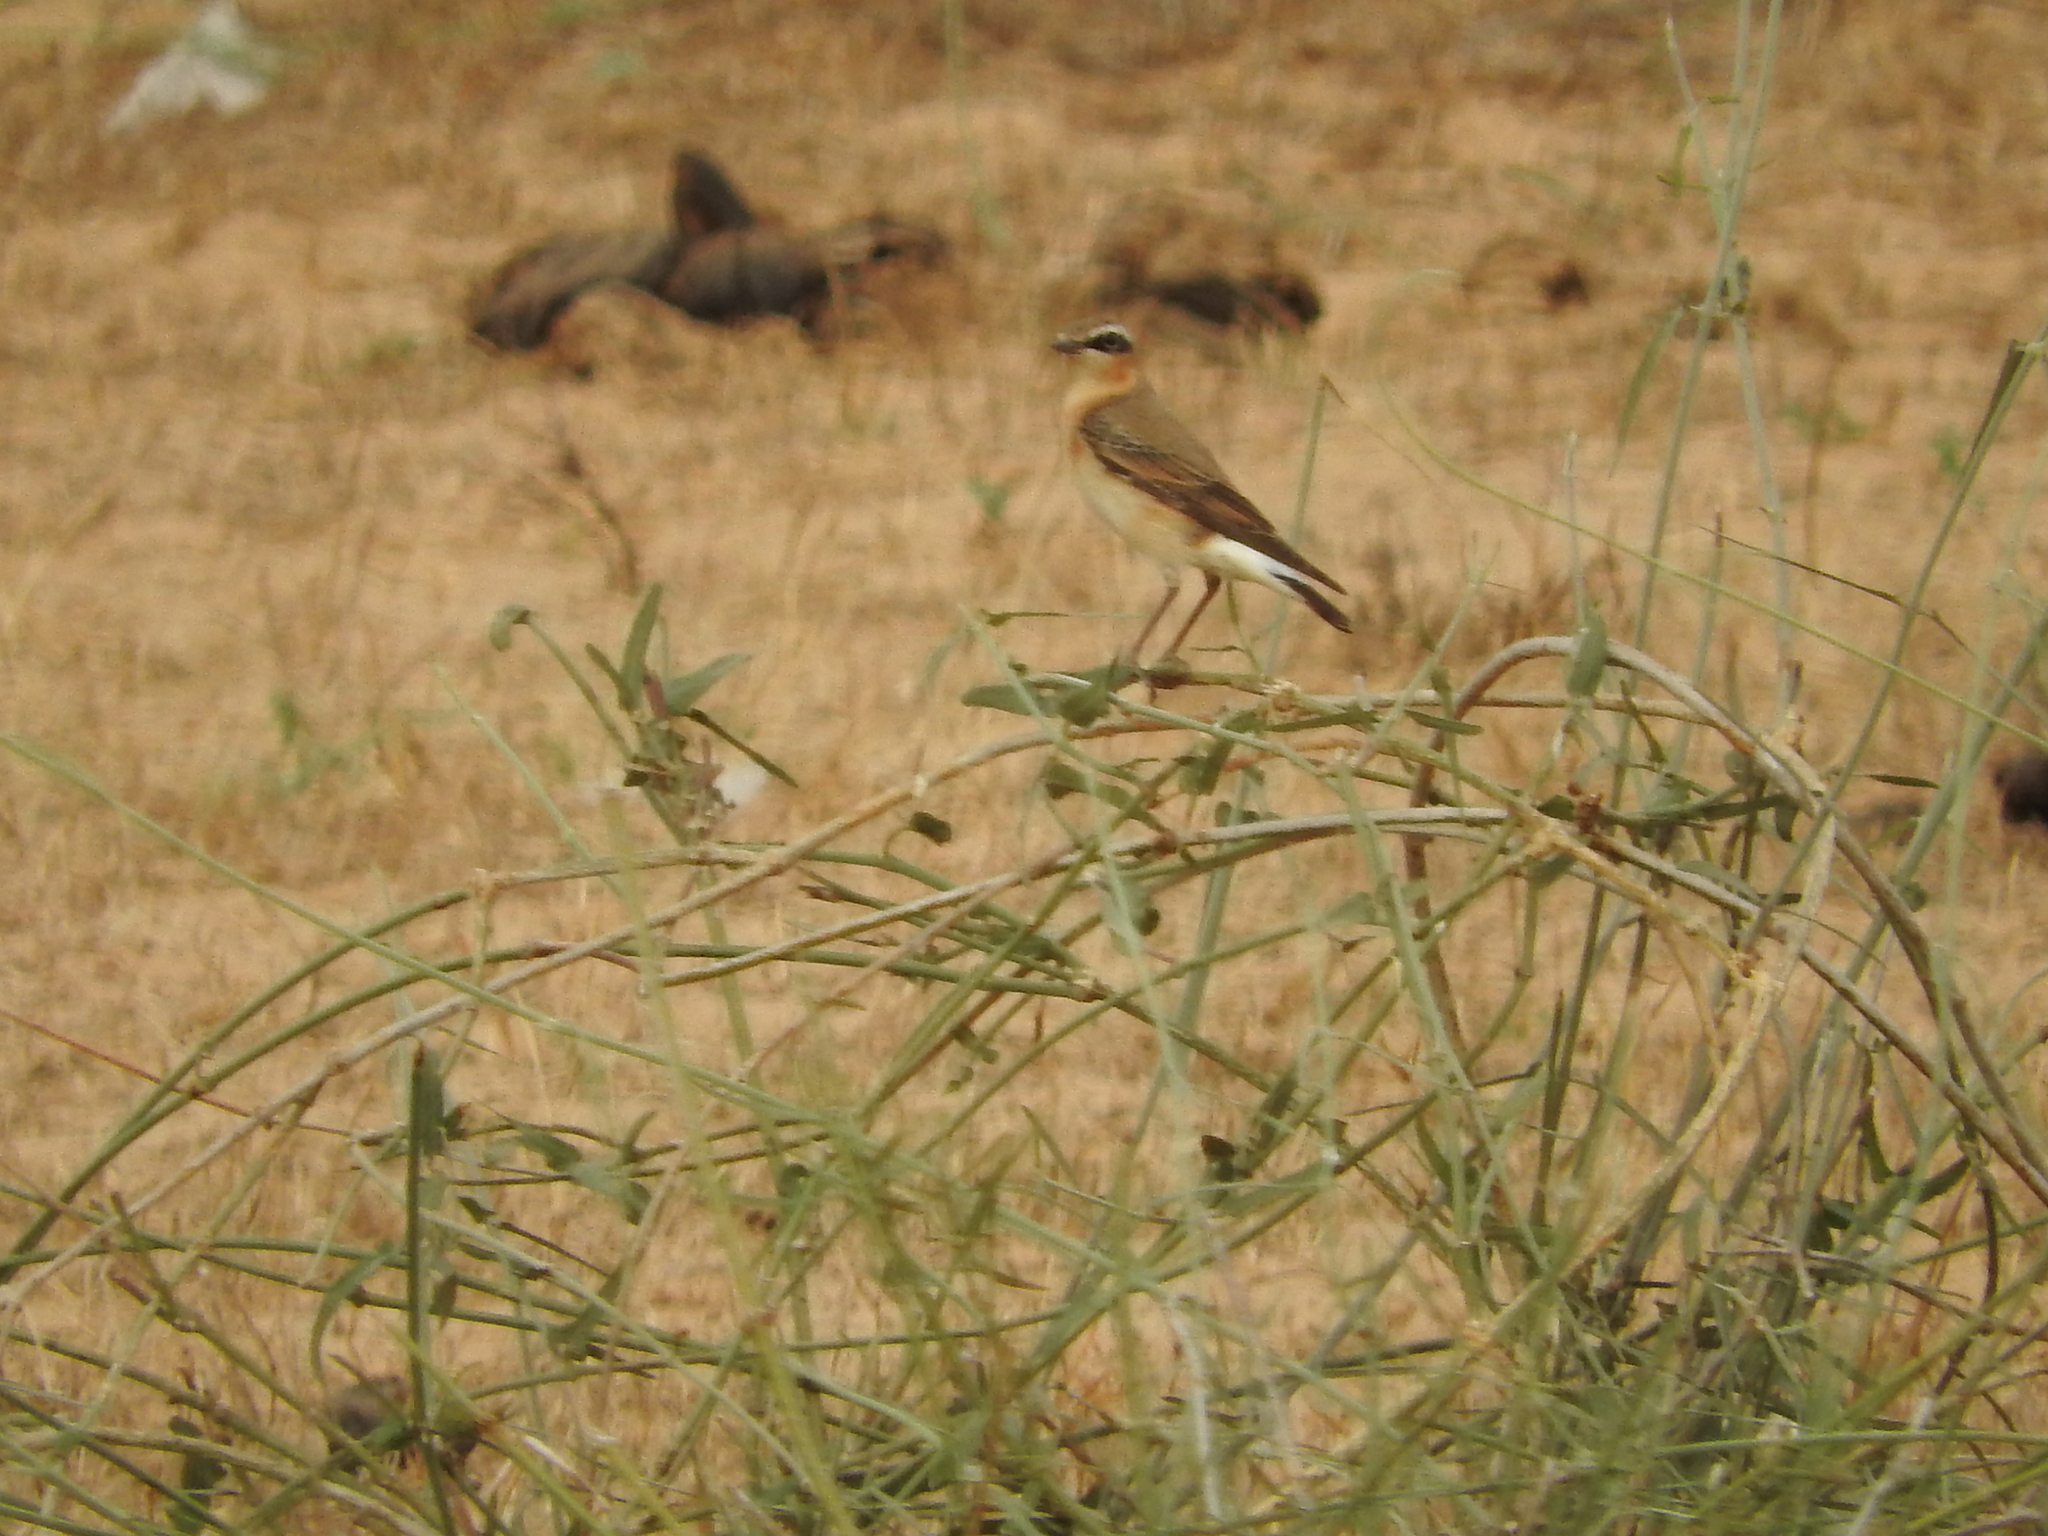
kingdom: Animalia
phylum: Chordata
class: Aves
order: Passeriformes
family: Muscicapidae
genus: Oenanthe
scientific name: Oenanthe oenanthe
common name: Northern wheatear
